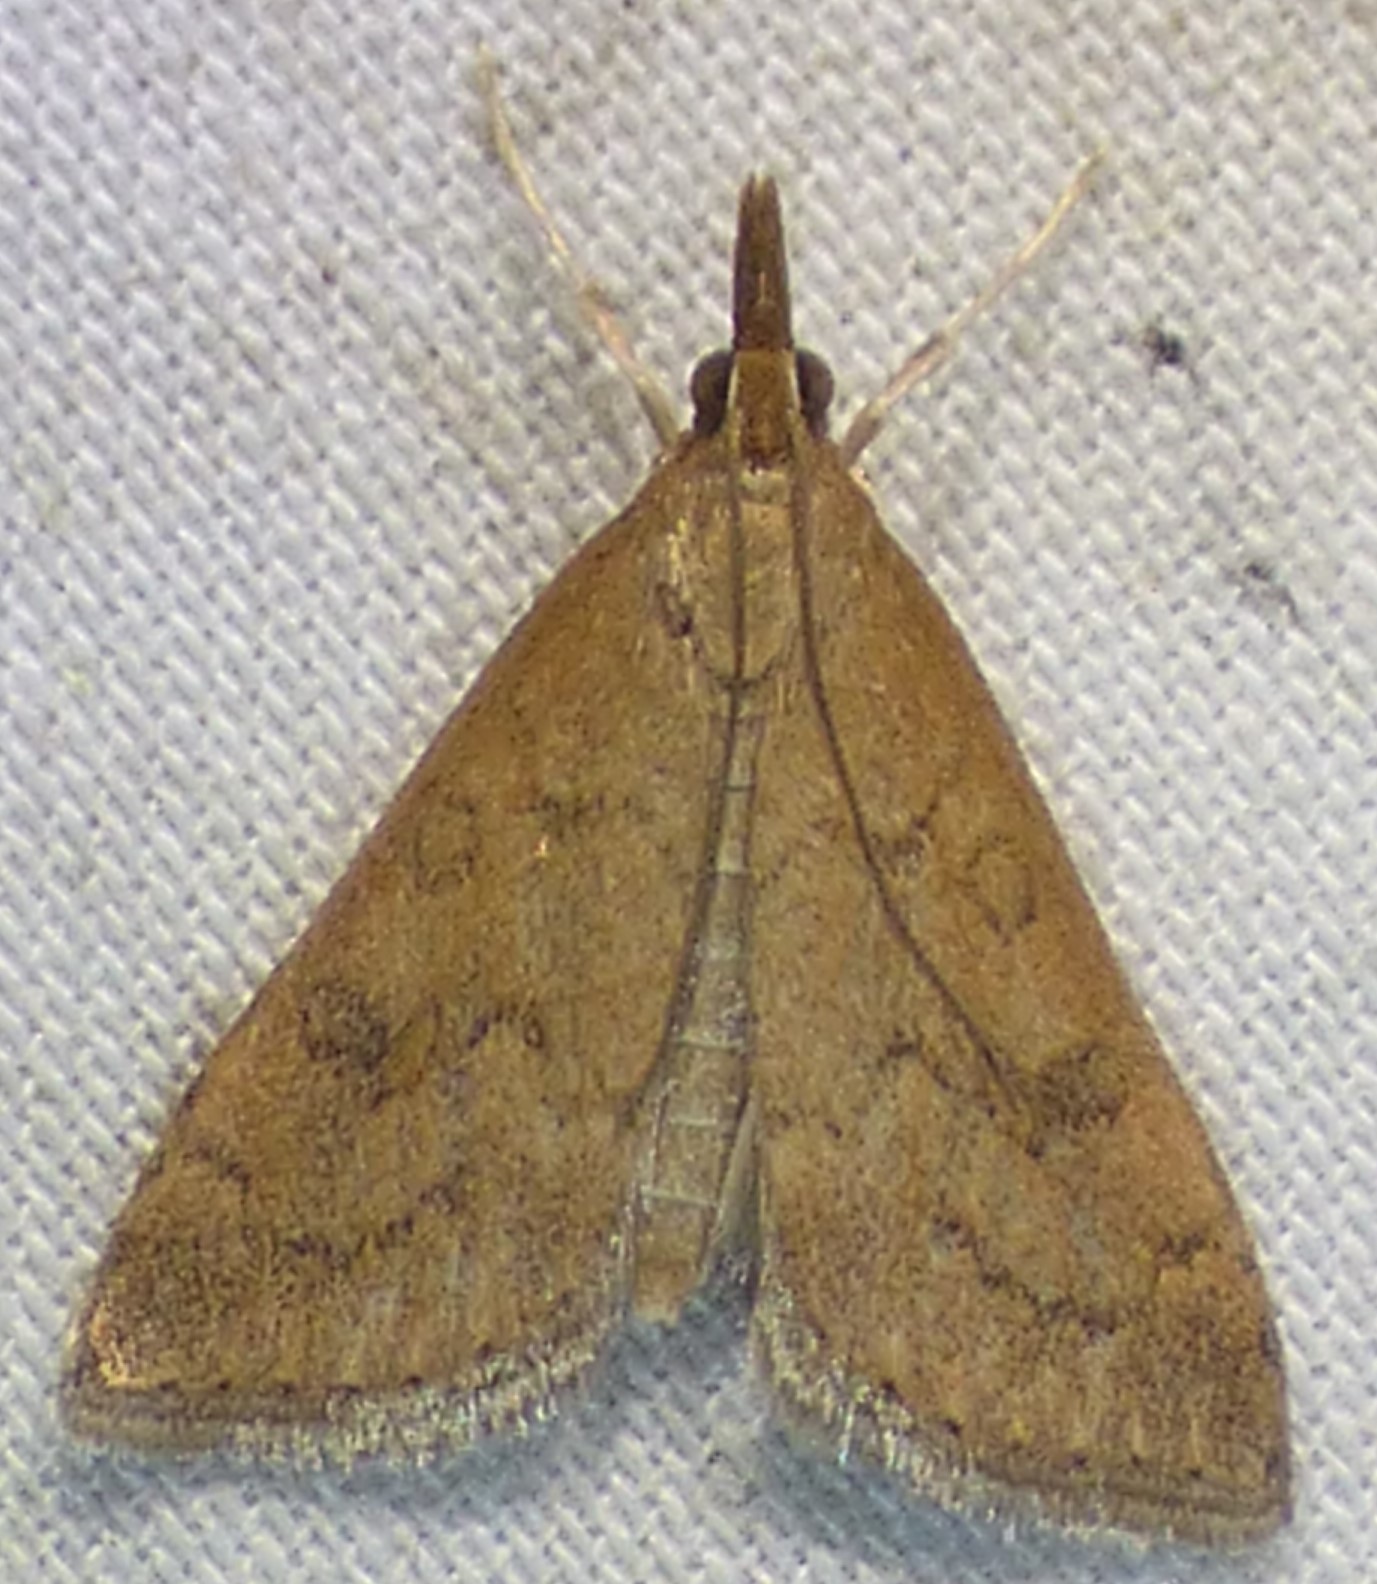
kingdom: Animalia
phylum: Arthropoda
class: Insecta
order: Lepidoptera
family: Crambidae
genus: Udea
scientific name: Udea rubigalis
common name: Celery leaftier moth
